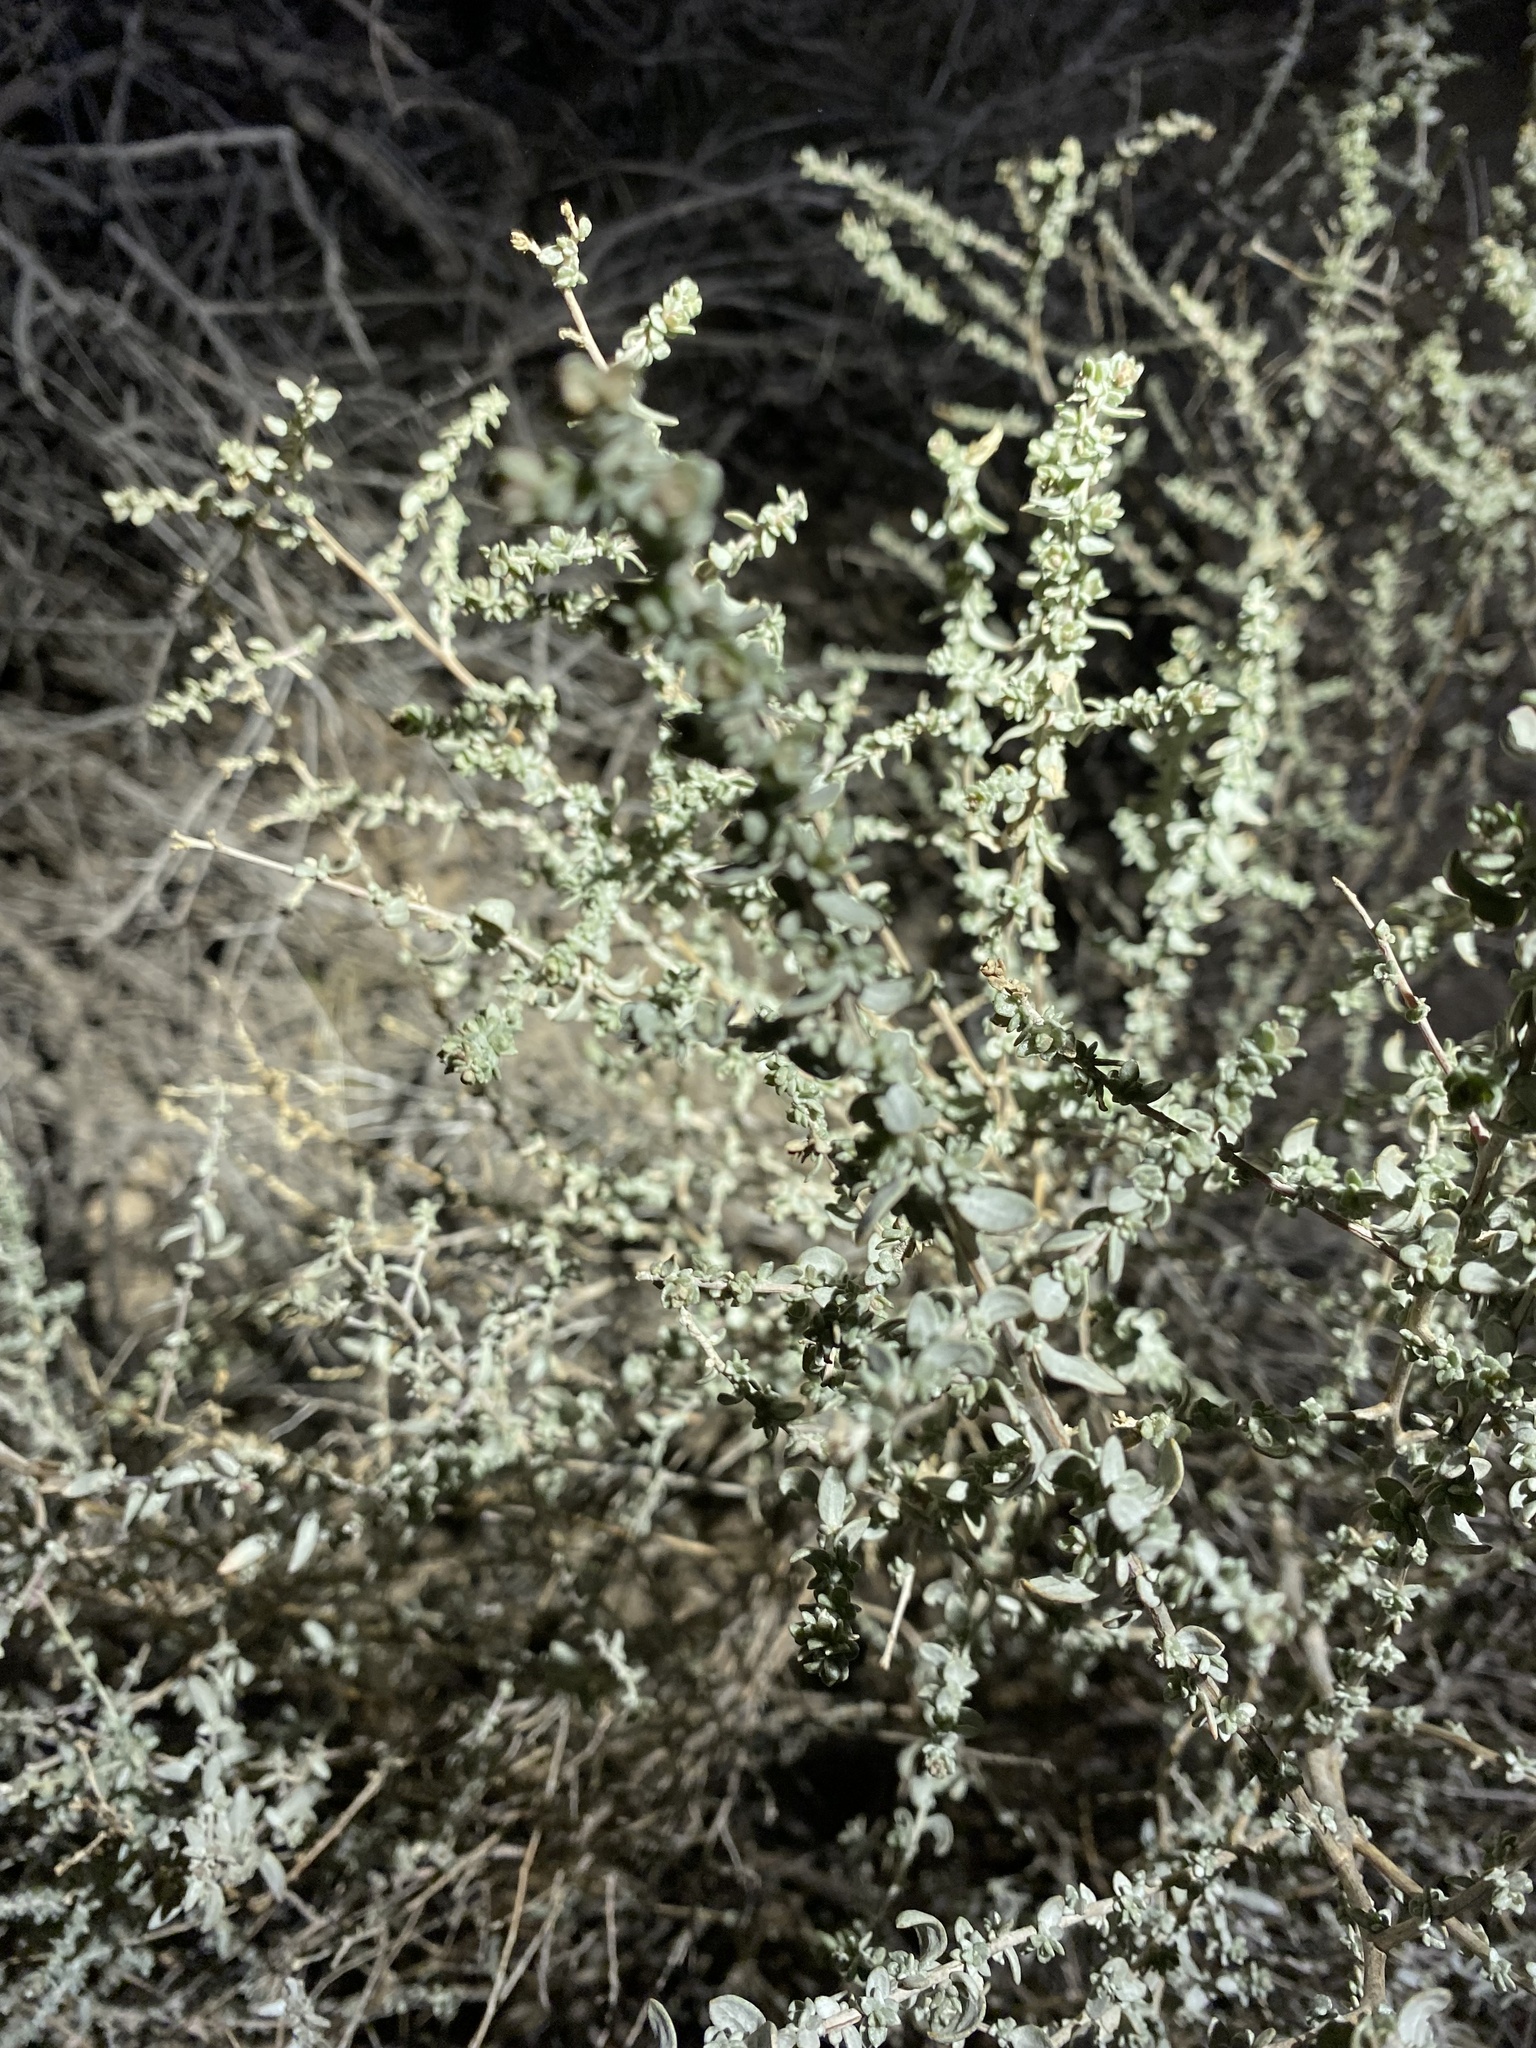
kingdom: Plantae
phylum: Tracheophyta
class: Magnoliopsida
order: Caryophyllales
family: Amaranthaceae
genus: Atriplex
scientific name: Atriplex polycarpa
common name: Desert saltbush
